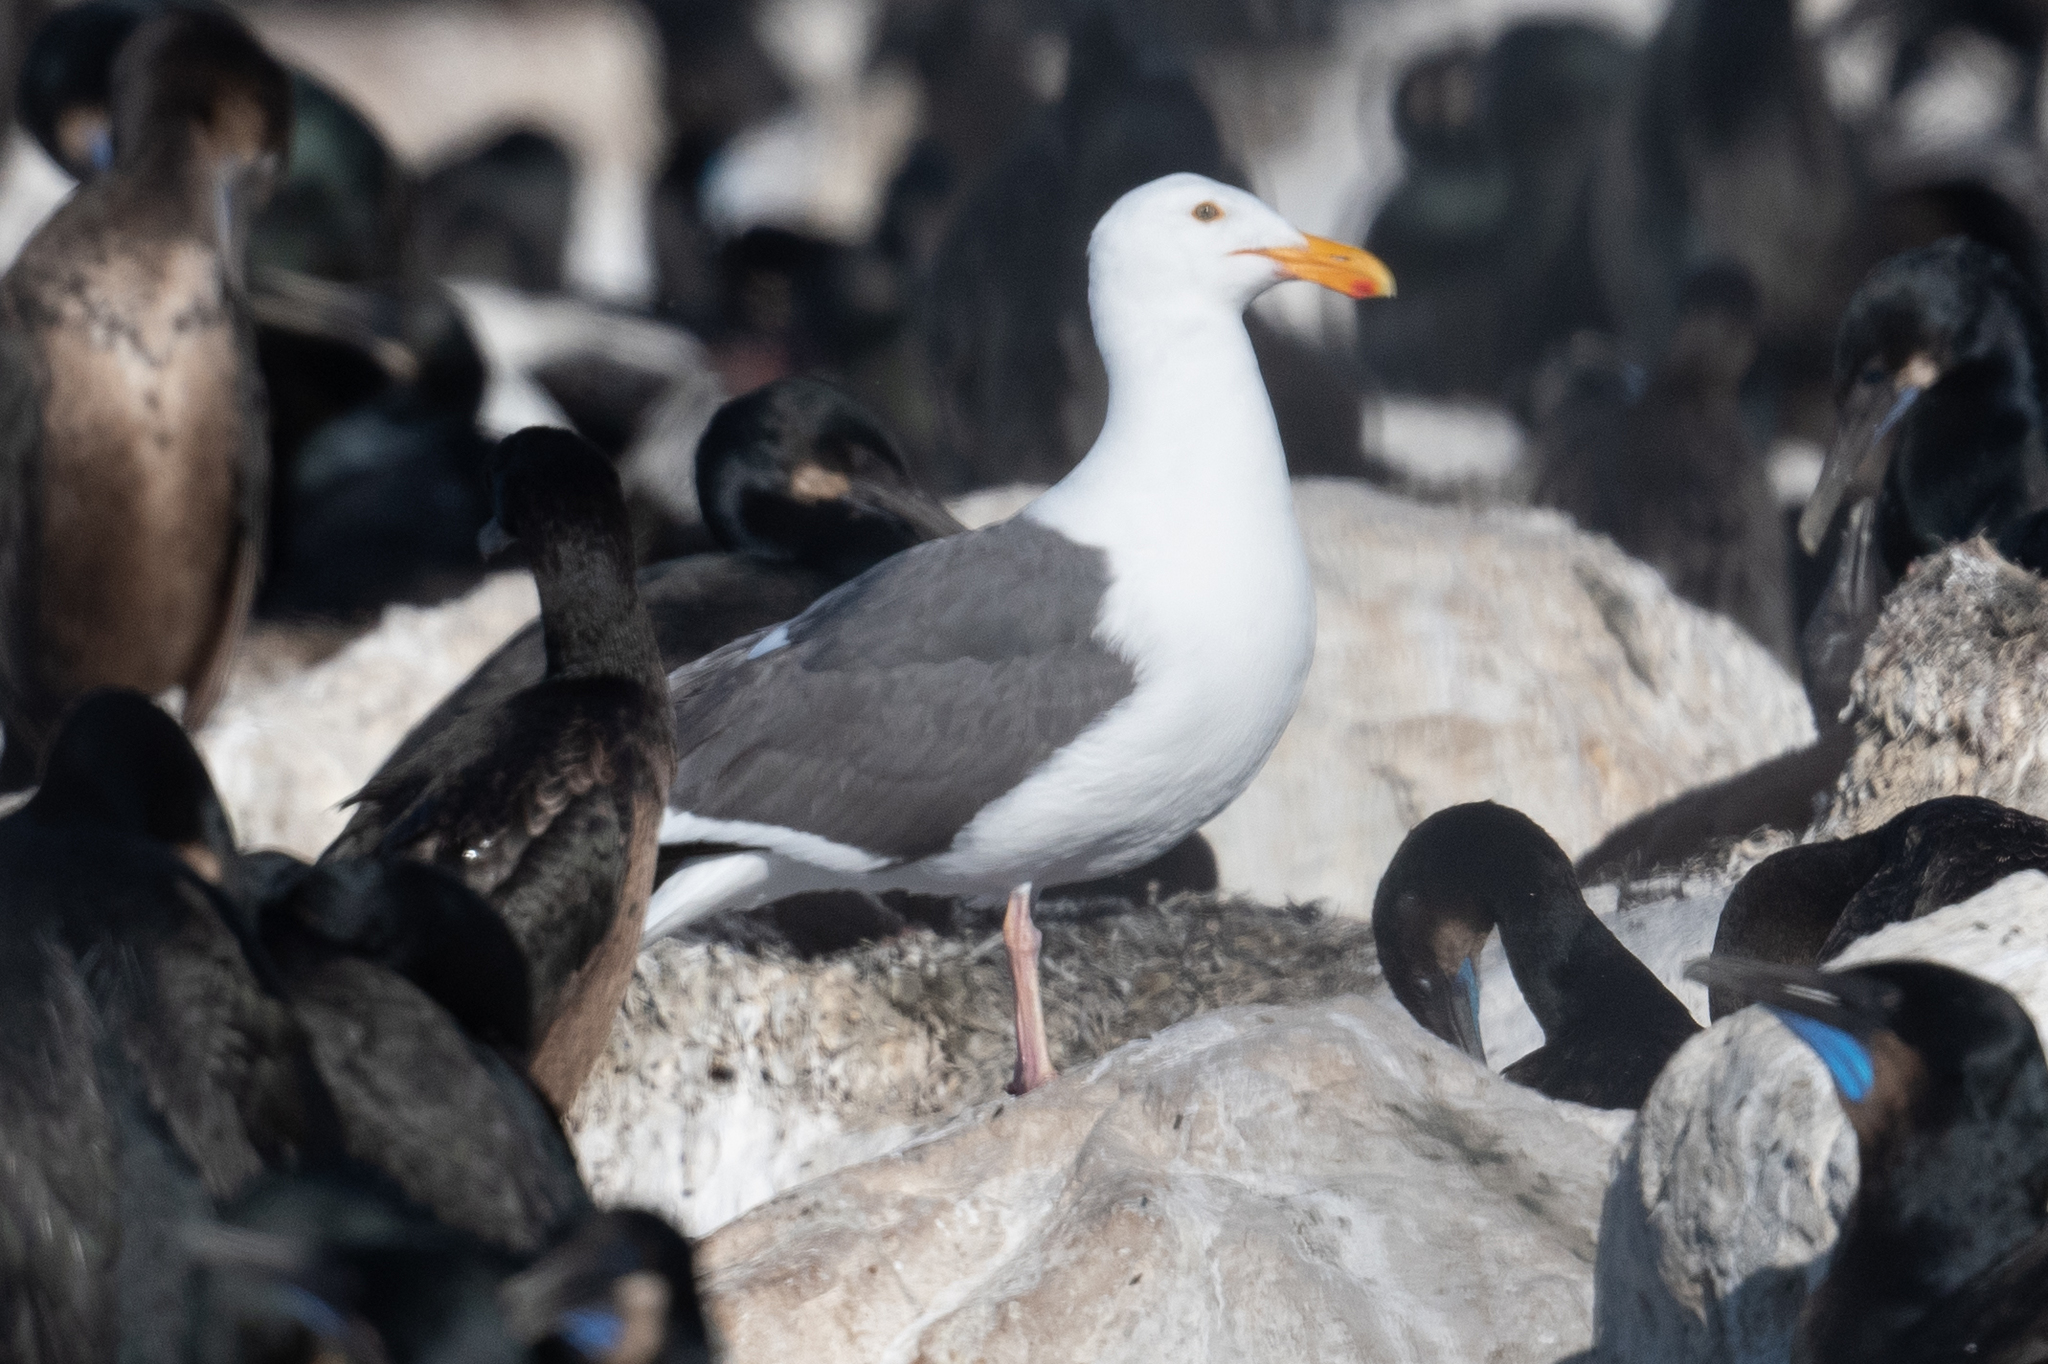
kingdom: Animalia
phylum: Chordata
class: Aves
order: Charadriiformes
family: Laridae
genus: Larus
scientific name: Larus occidentalis
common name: Western gull
